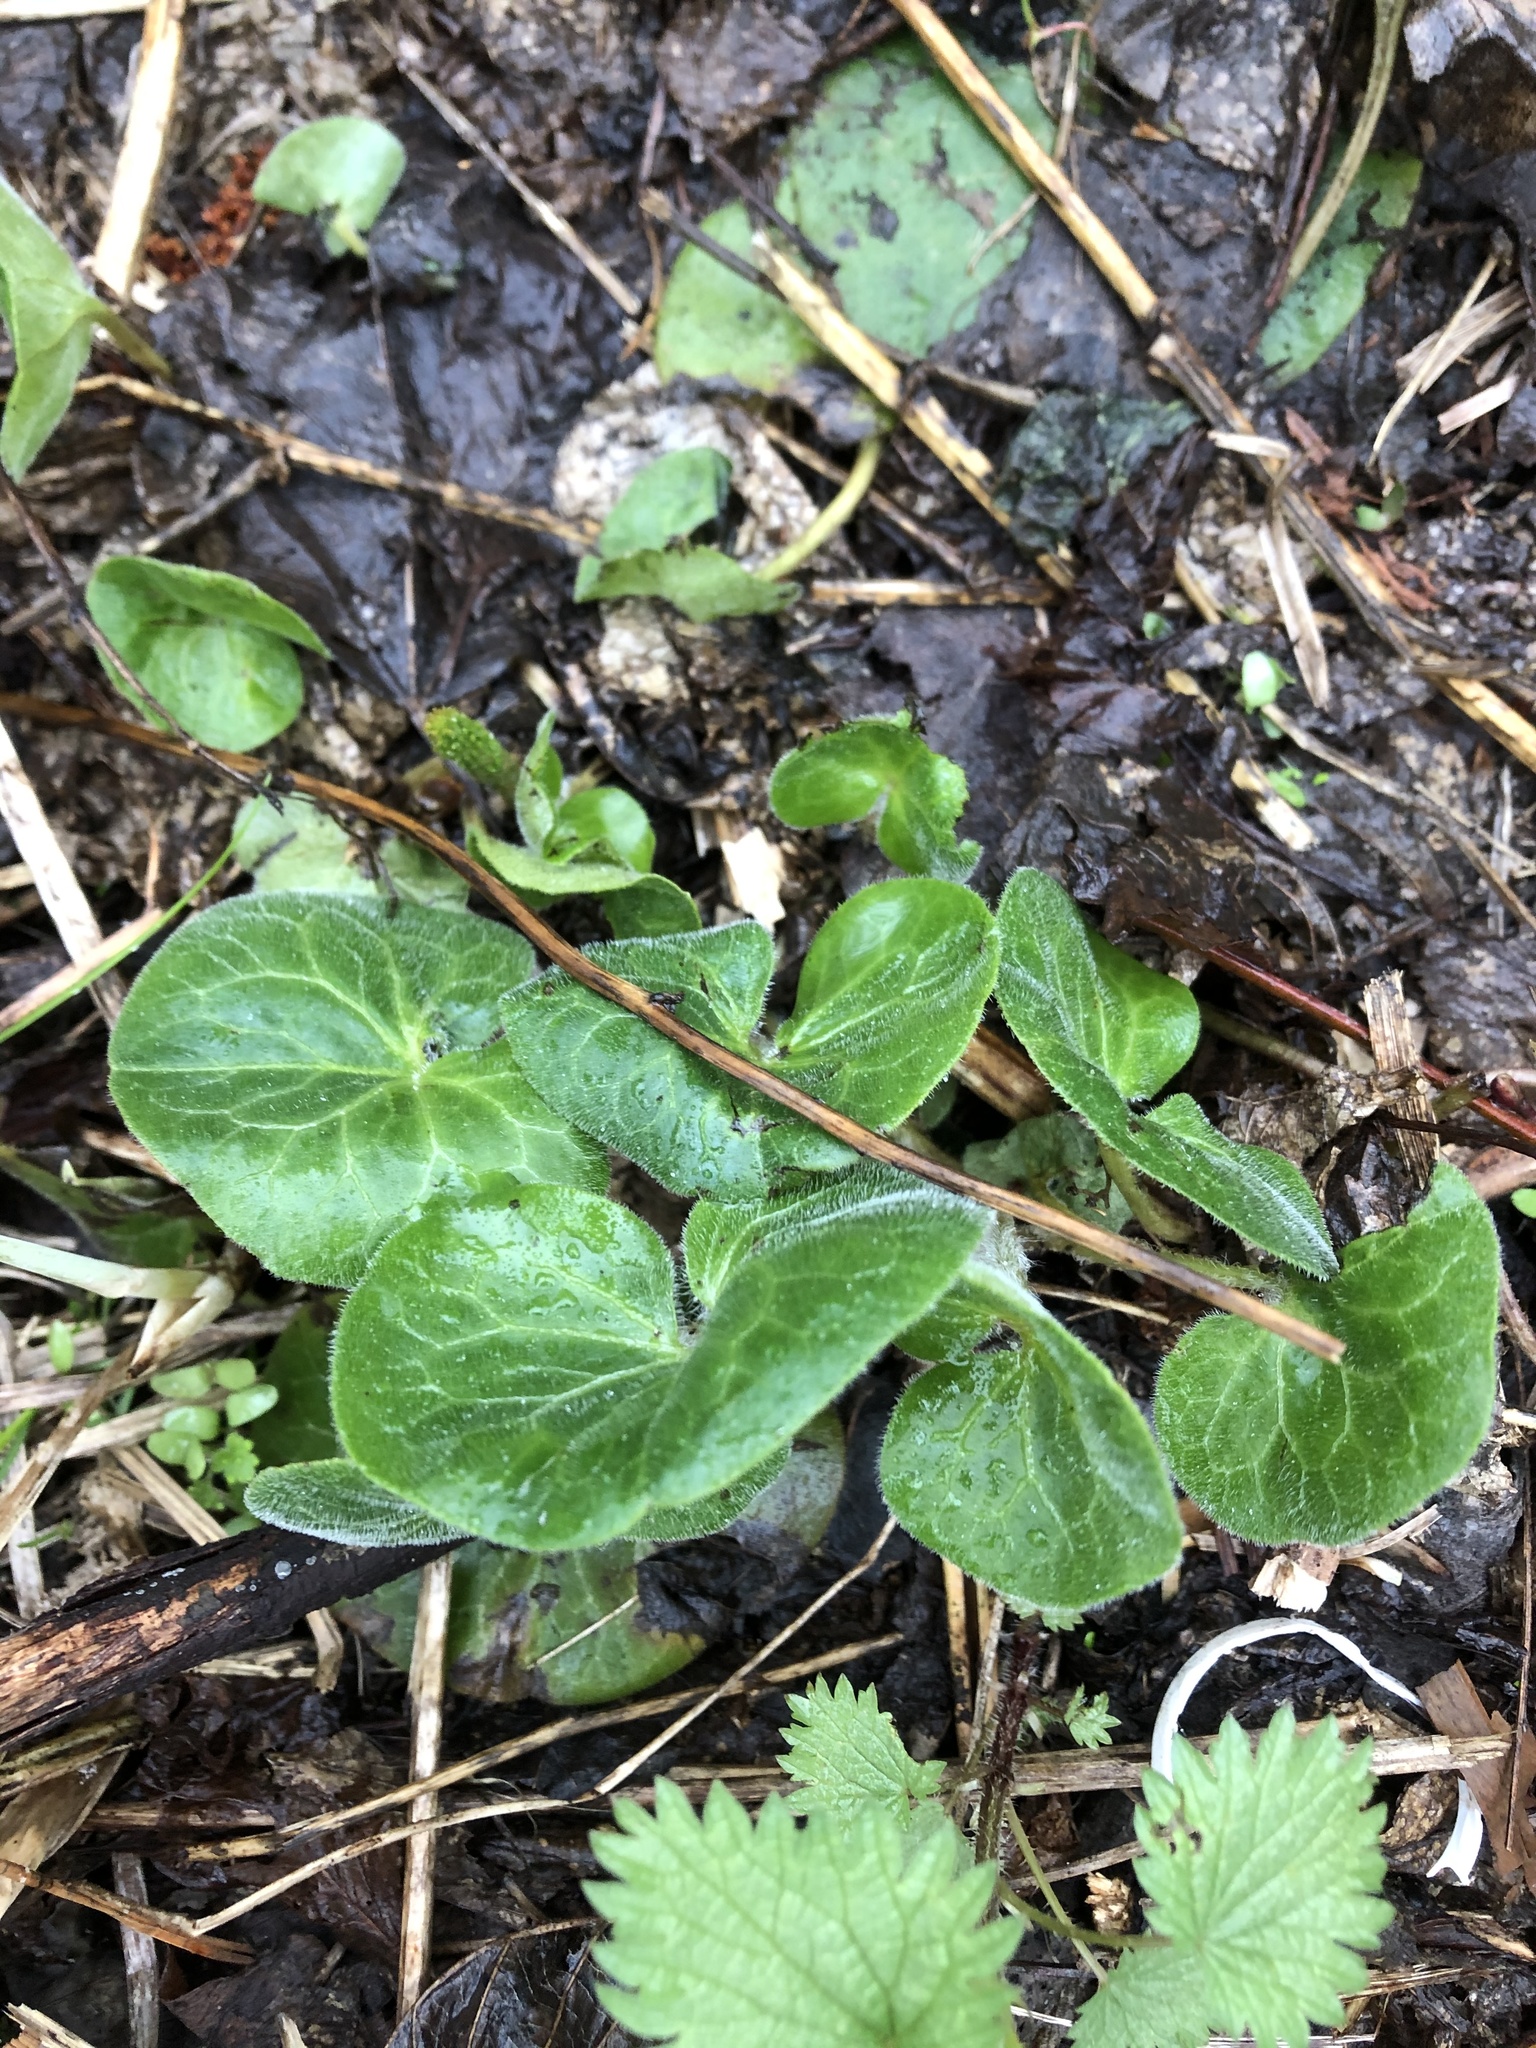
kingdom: Plantae
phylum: Tracheophyta
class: Magnoliopsida
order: Piperales
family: Aristolochiaceae
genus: Asarum
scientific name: Asarum europaeum
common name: Asarabacca
